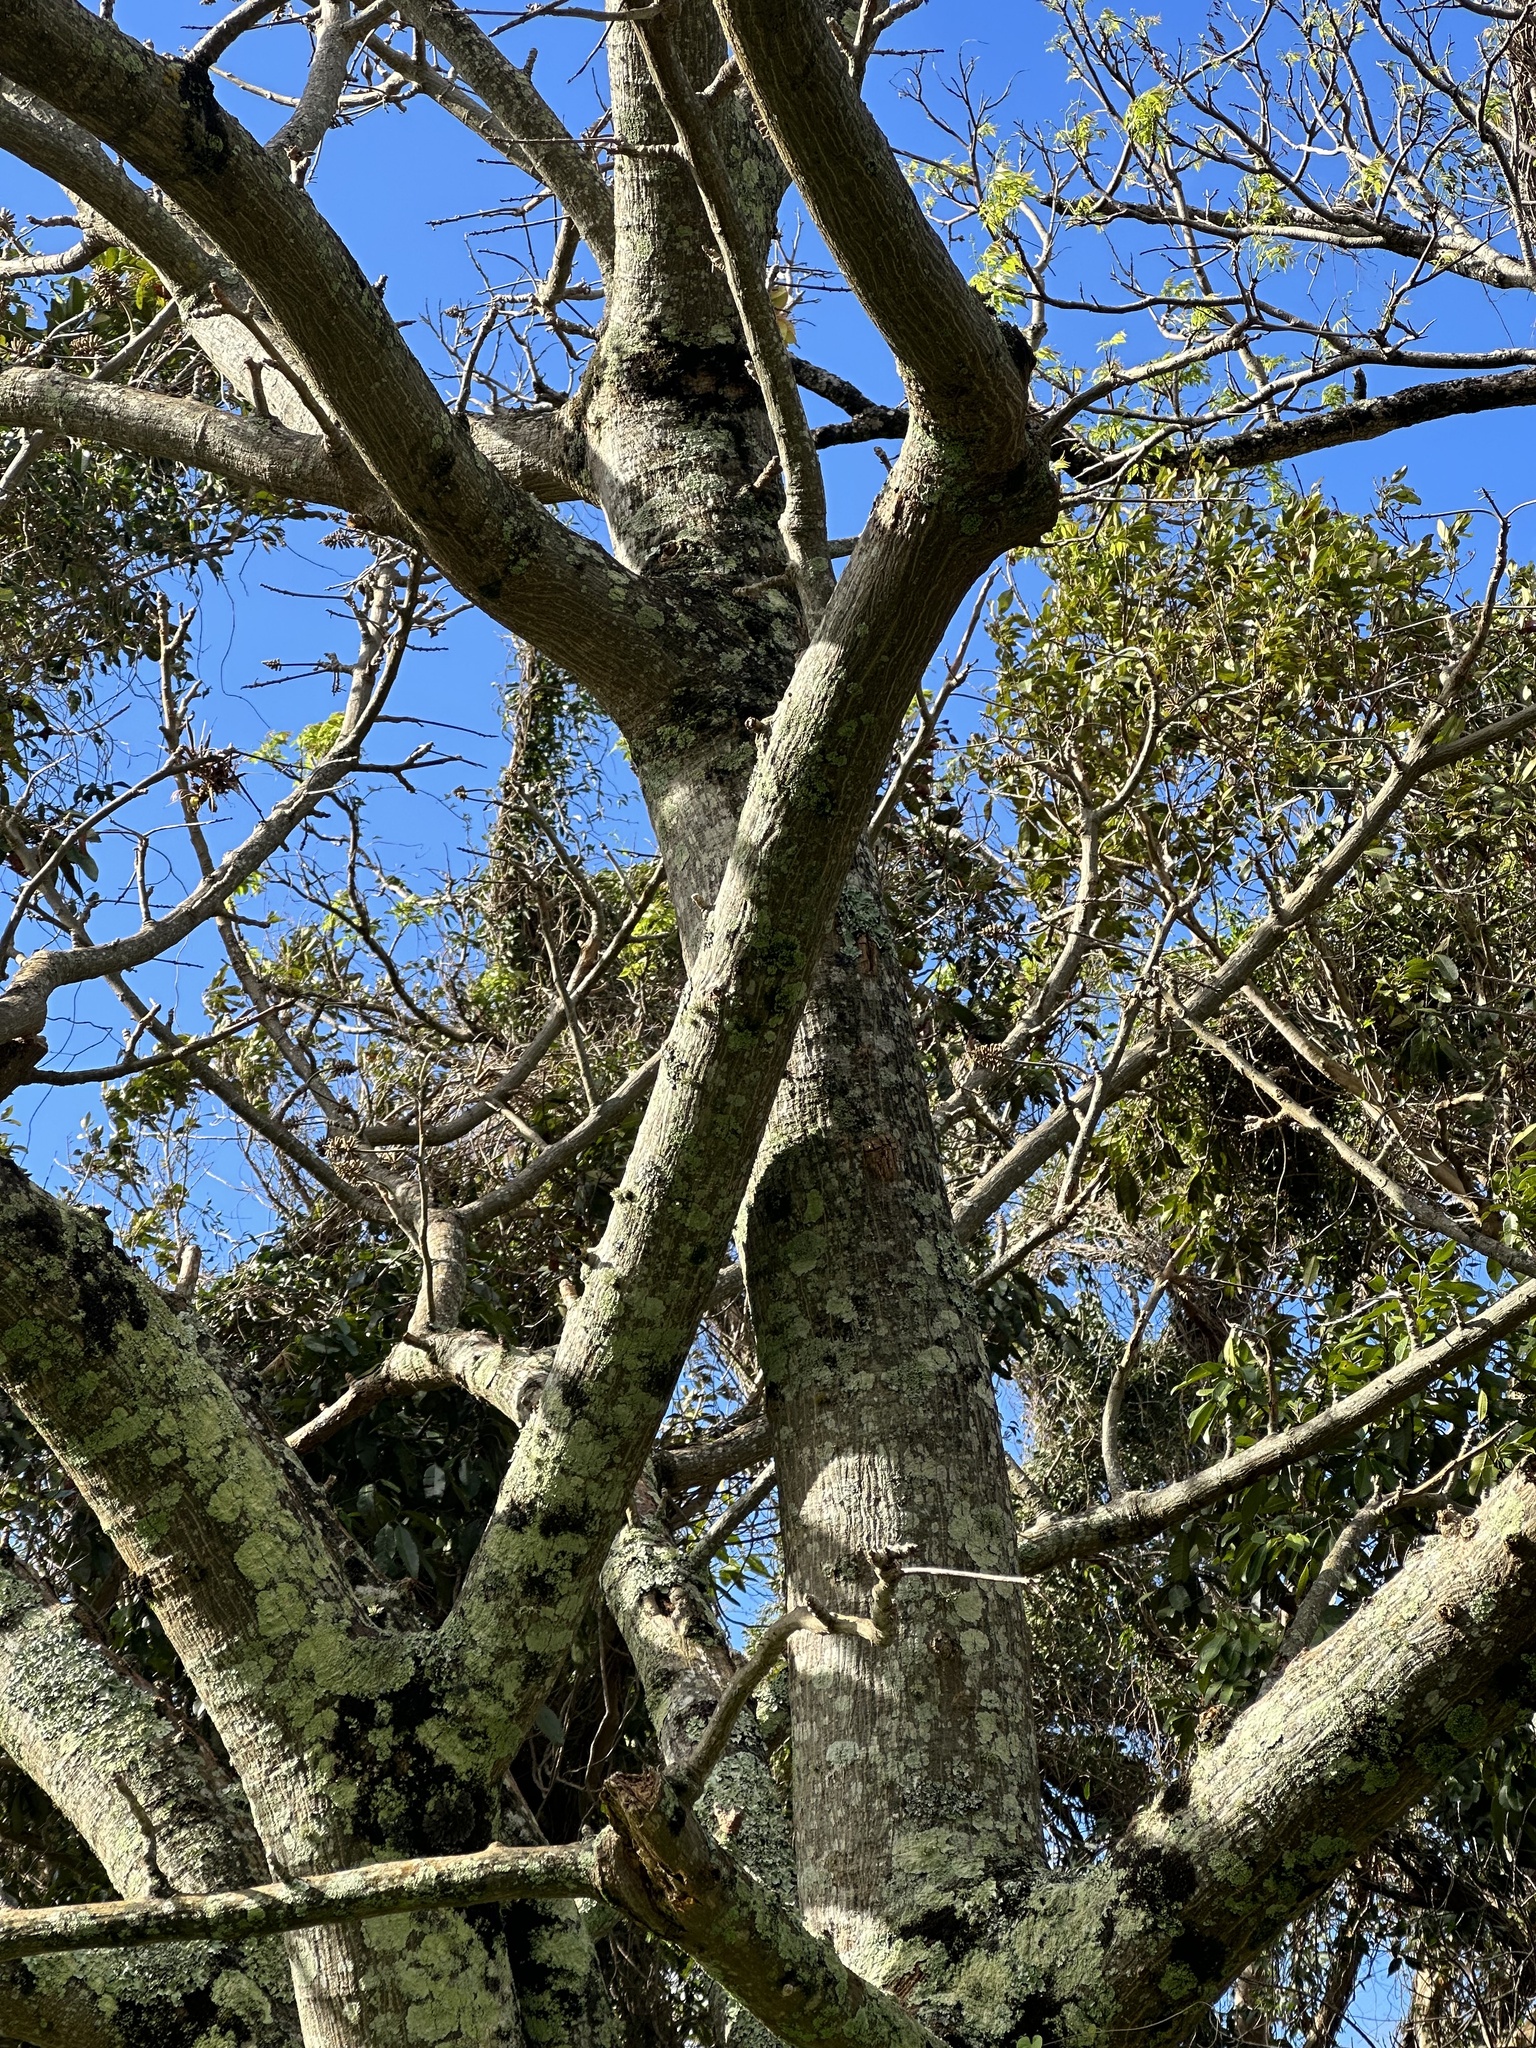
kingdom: Plantae
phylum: Tracheophyta
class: Magnoliopsida
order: Fabales
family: Fabaceae
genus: Erythrina
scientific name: Erythrina sandwicensis
